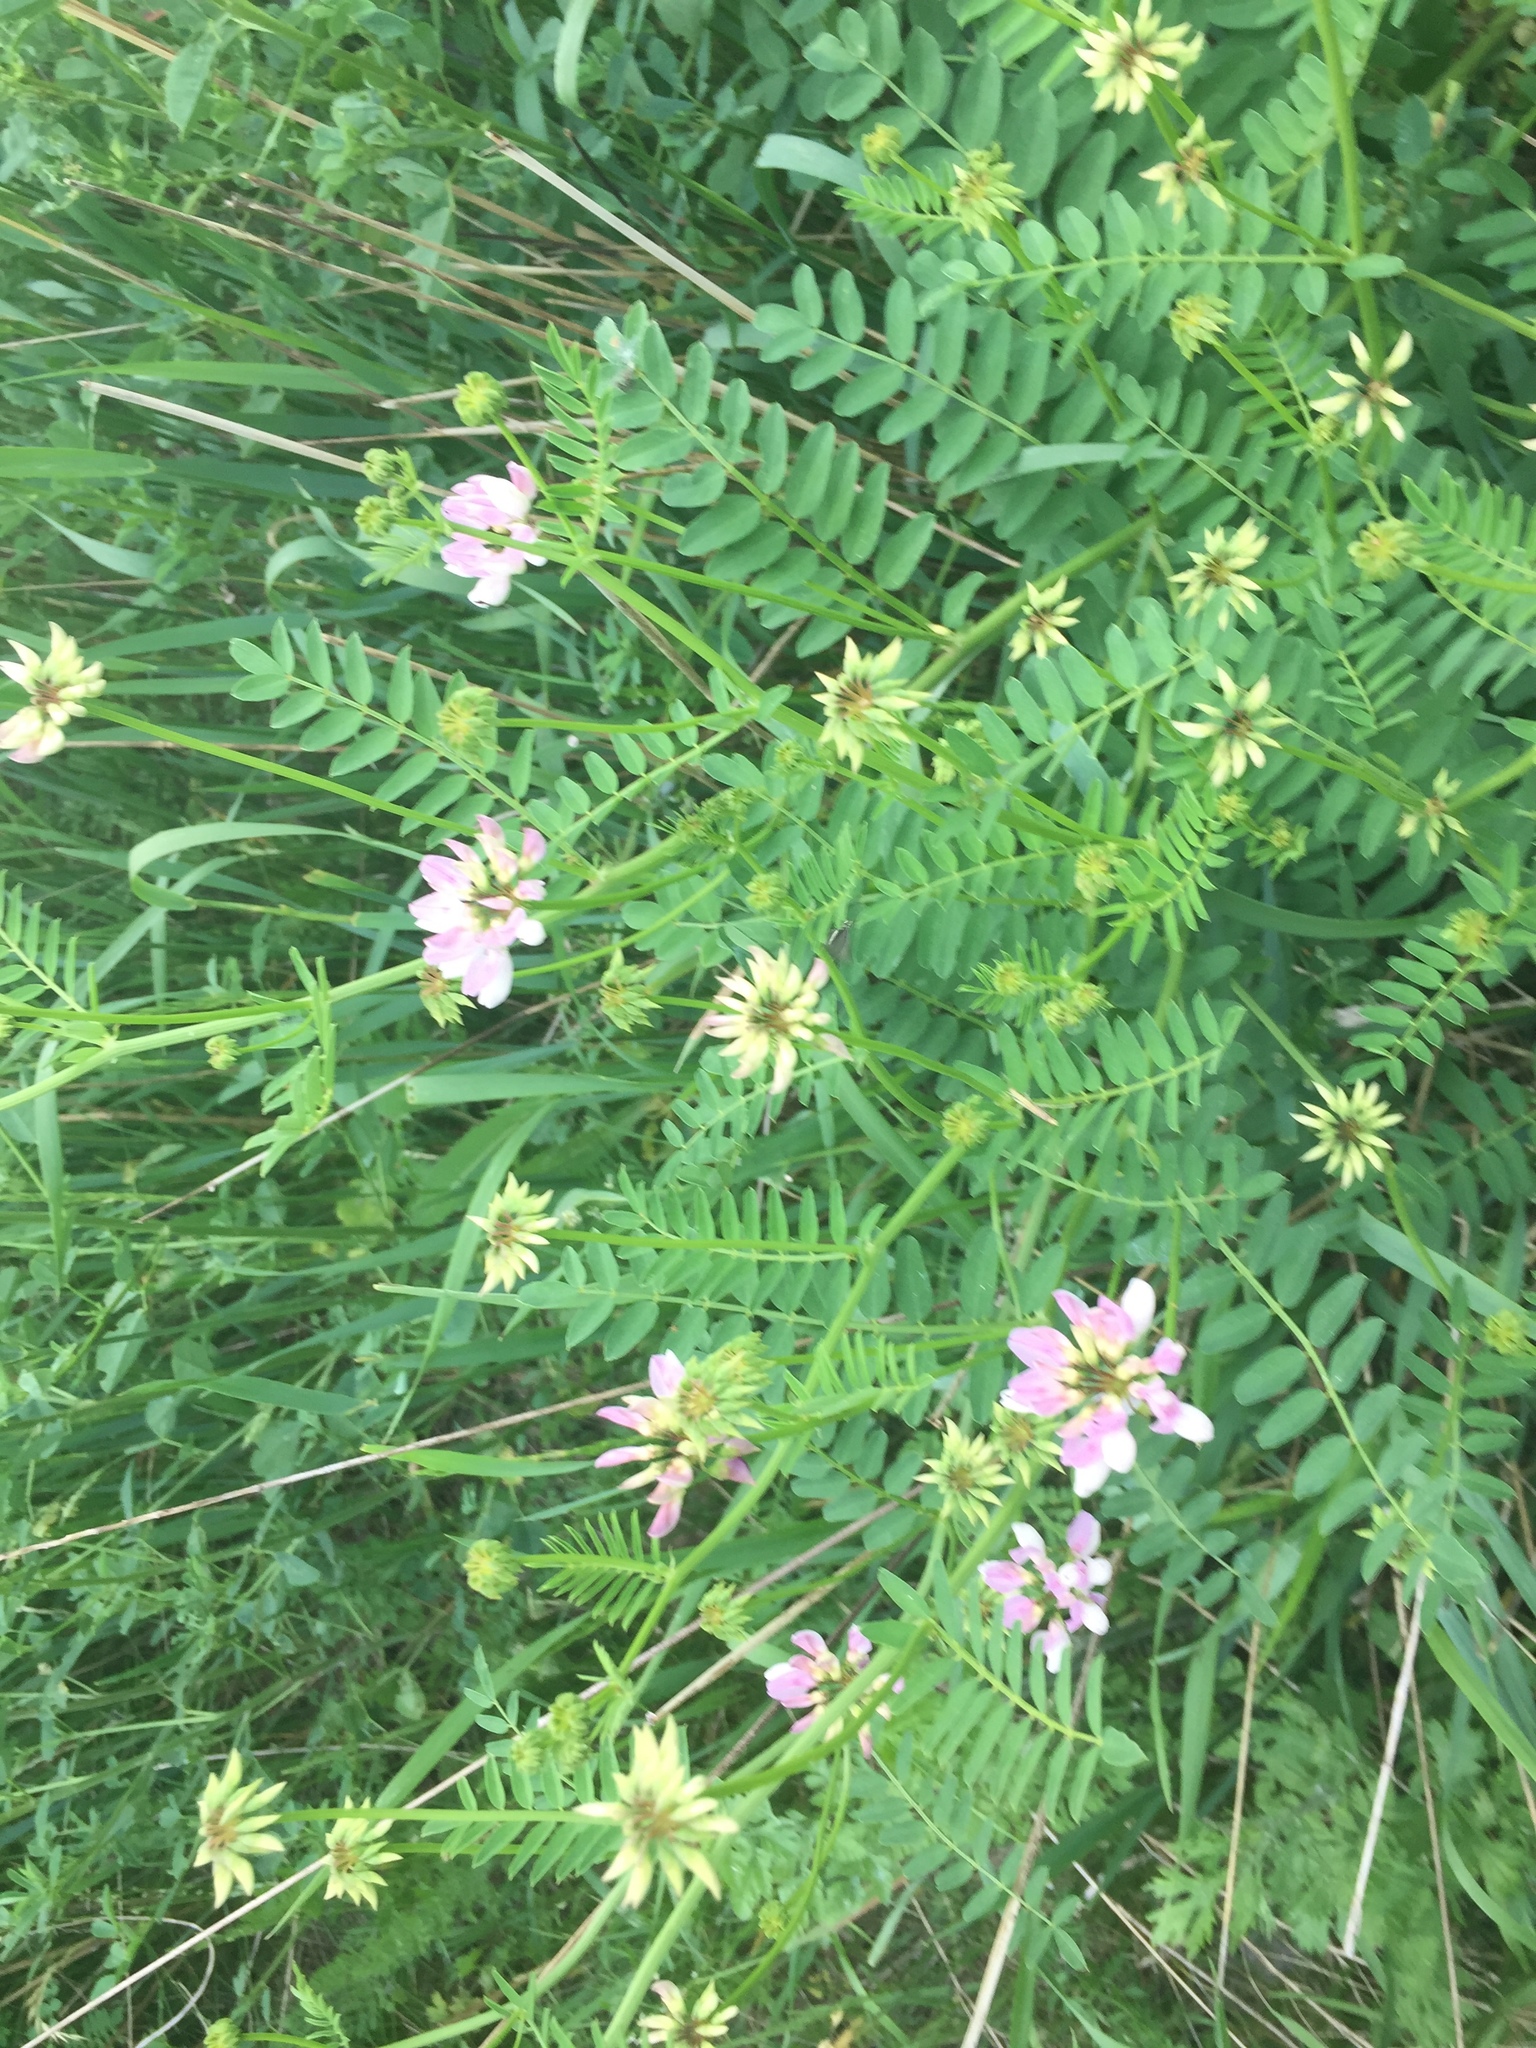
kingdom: Plantae
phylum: Tracheophyta
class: Magnoliopsida
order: Fabales
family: Fabaceae
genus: Coronilla
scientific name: Coronilla varia
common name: Crownvetch
